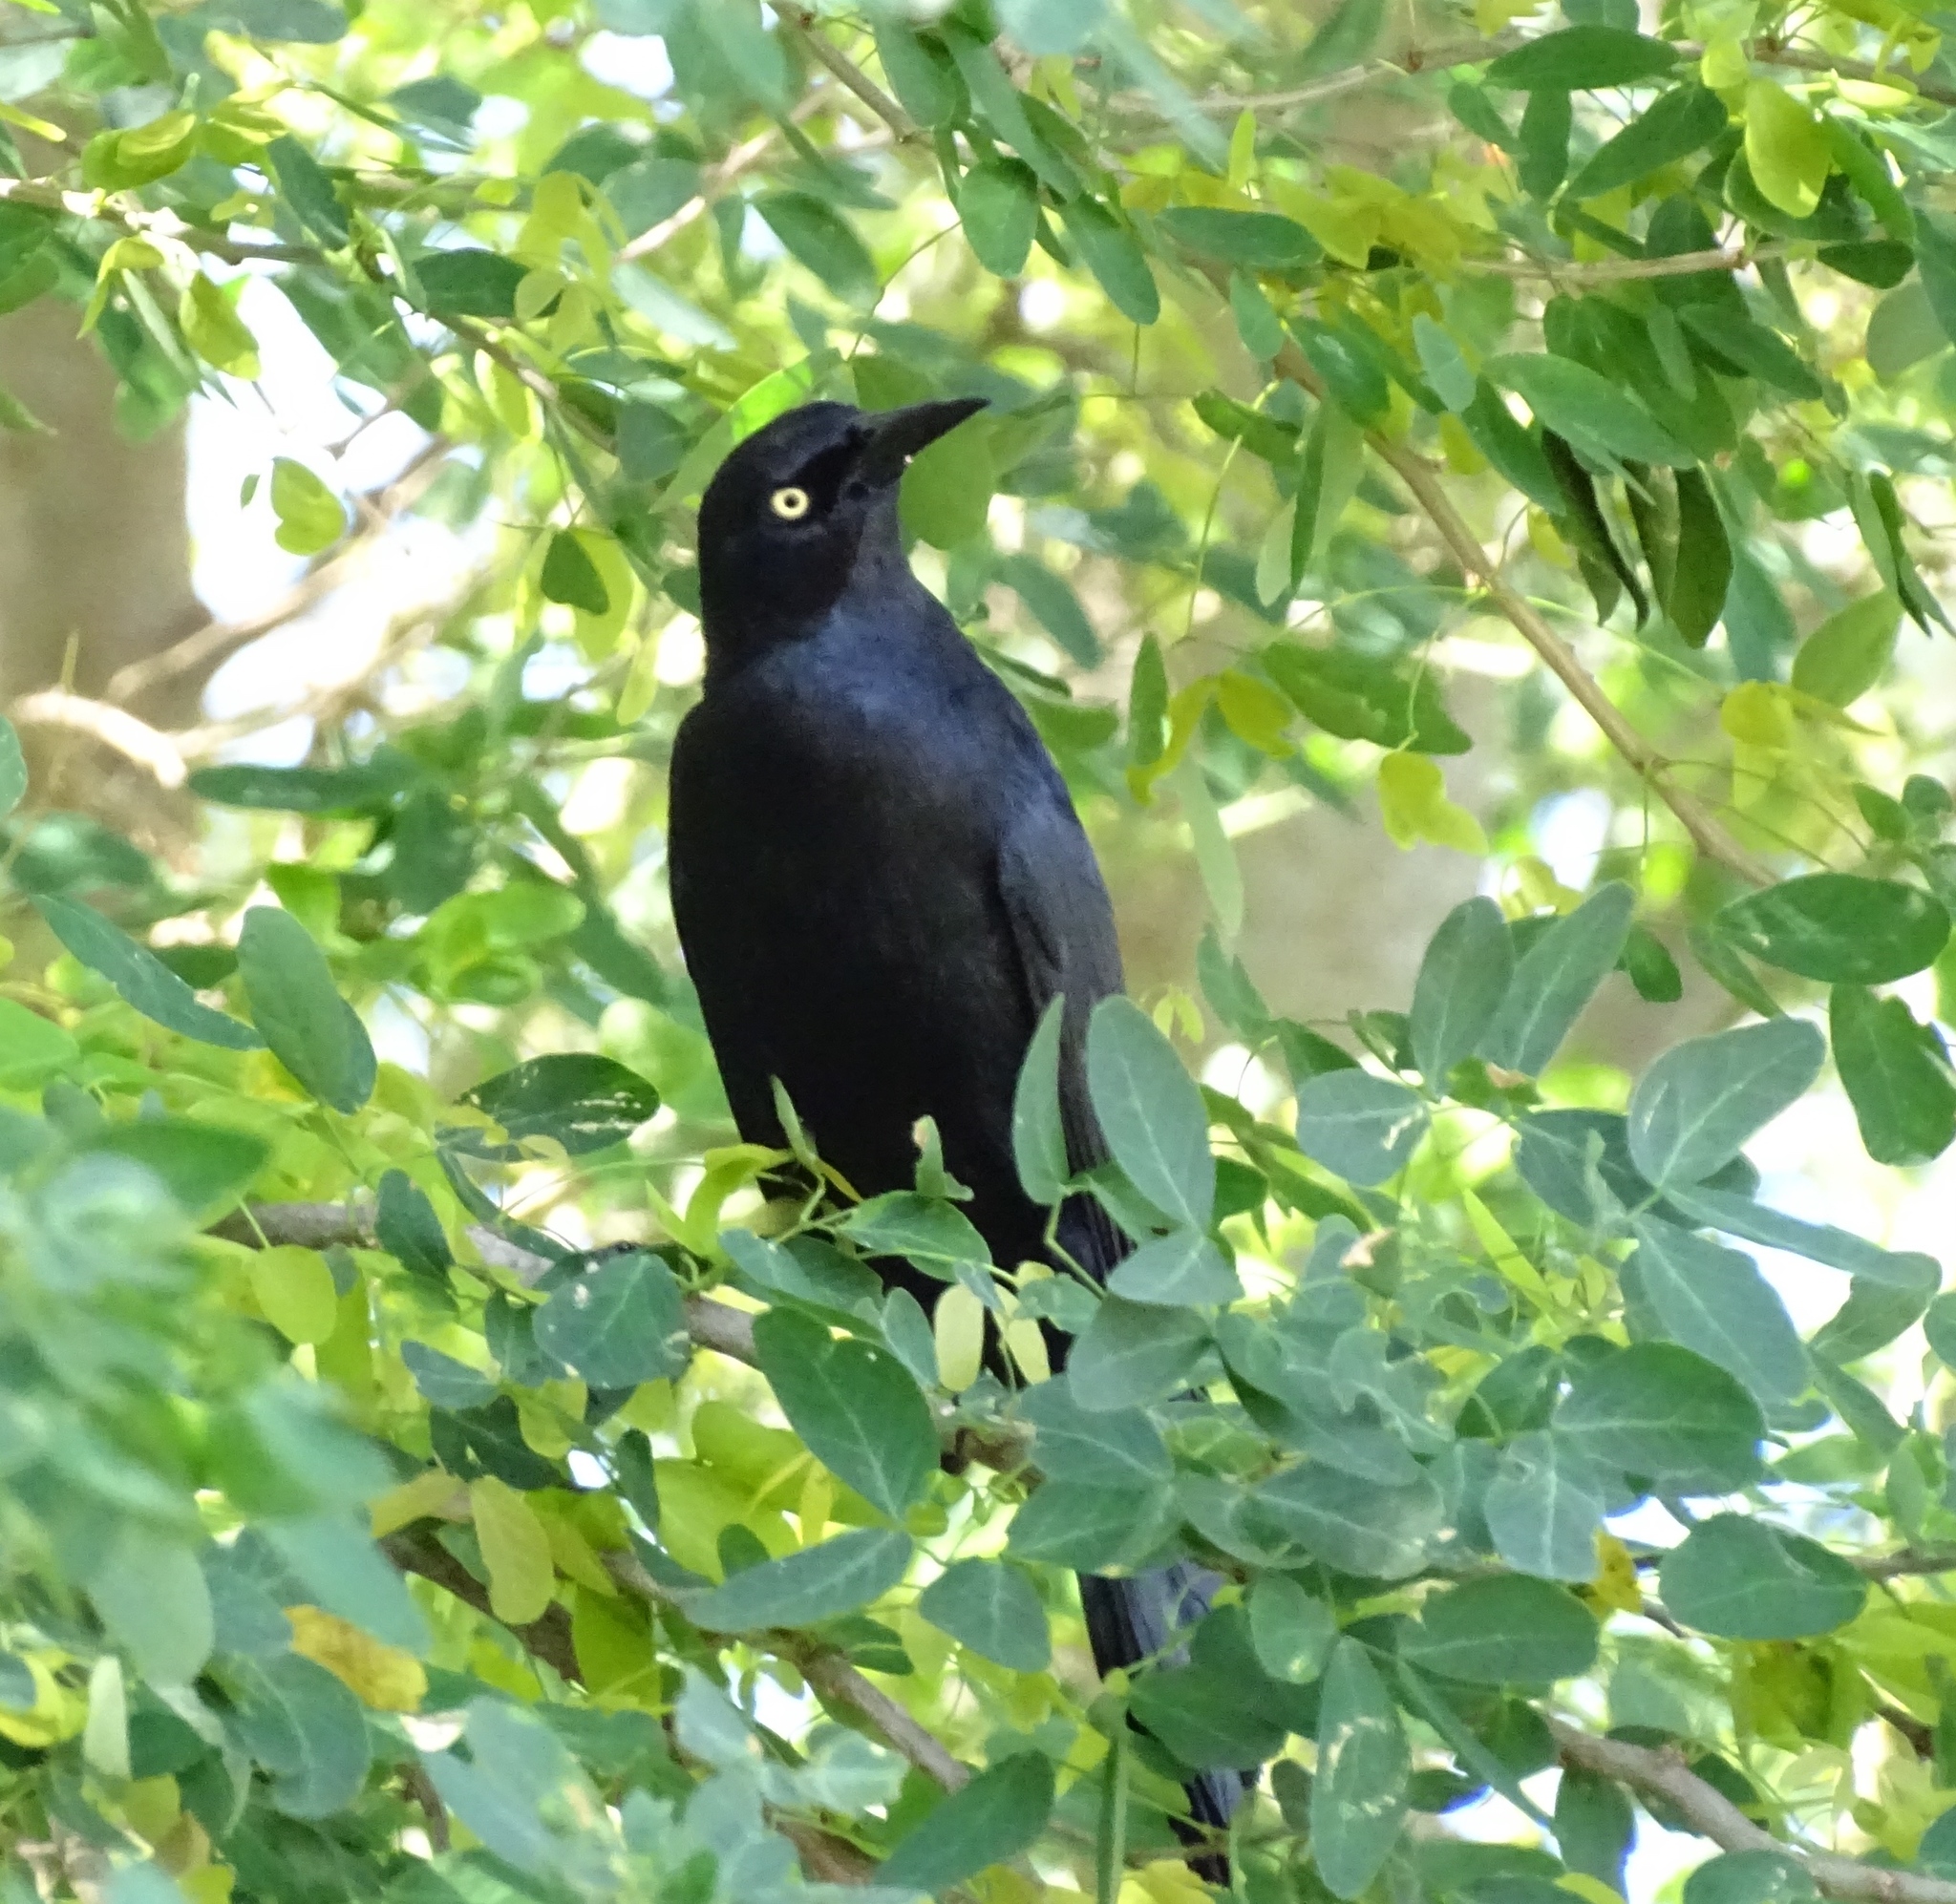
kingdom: Animalia
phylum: Chordata
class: Aves
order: Passeriformes
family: Icteridae
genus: Quiscalus
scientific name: Quiscalus niger
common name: Greater antillean grackle
